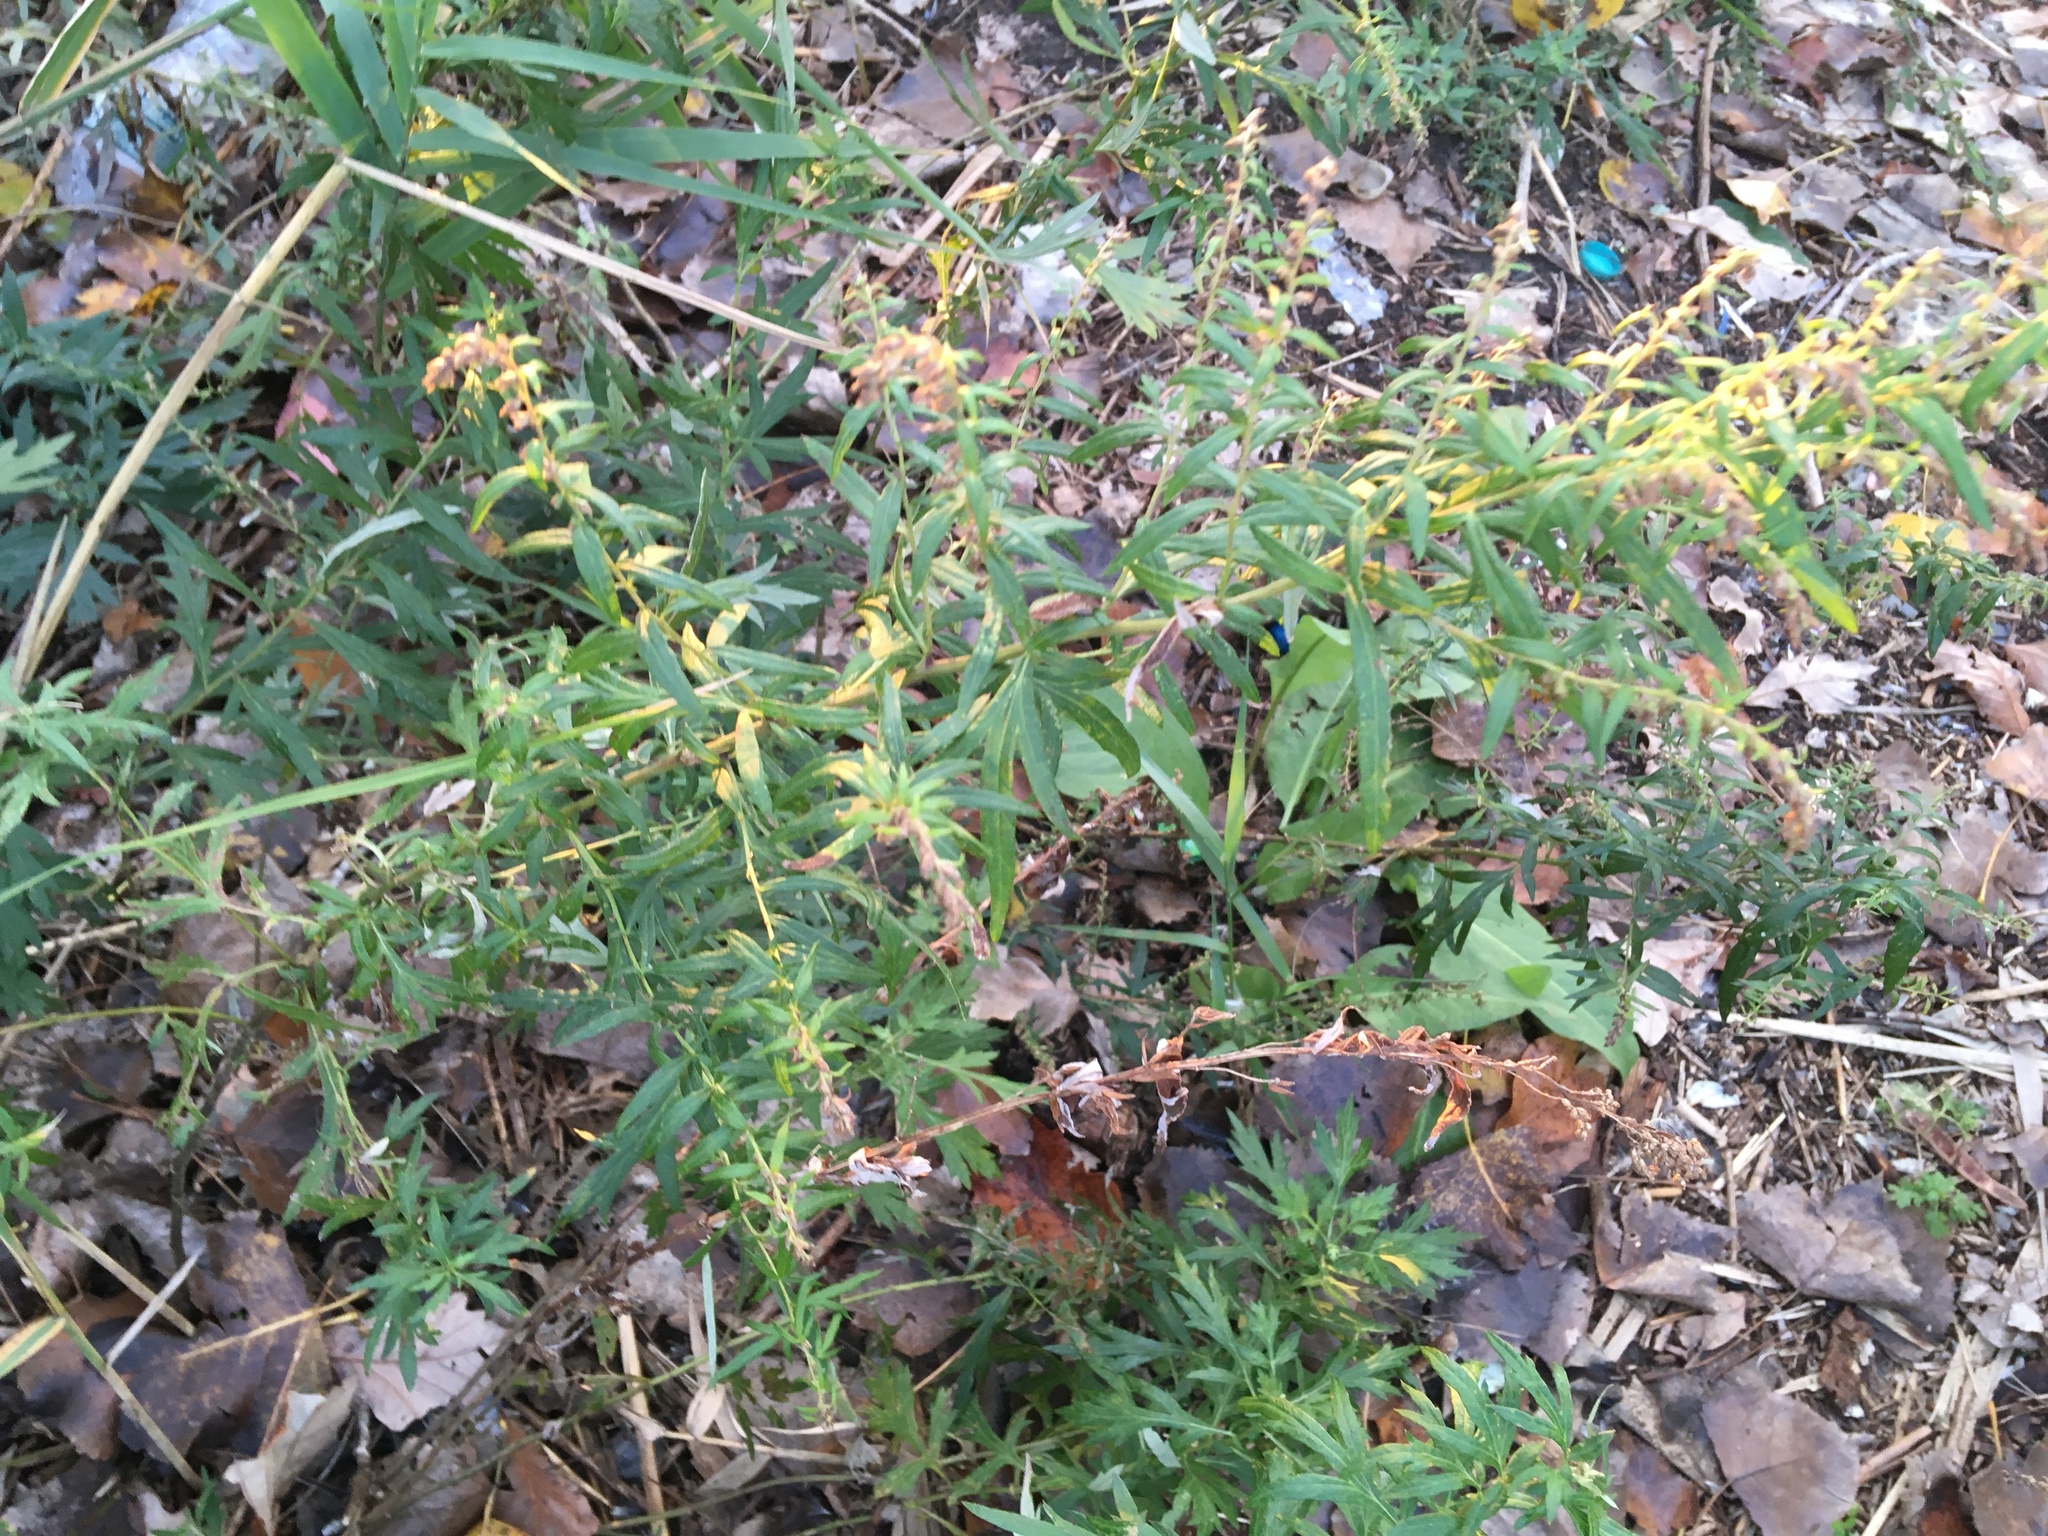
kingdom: Plantae
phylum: Tracheophyta
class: Magnoliopsida
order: Asterales
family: Asteraceae
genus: Artemisia
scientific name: Artemisia vulgaris
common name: Mugwort
